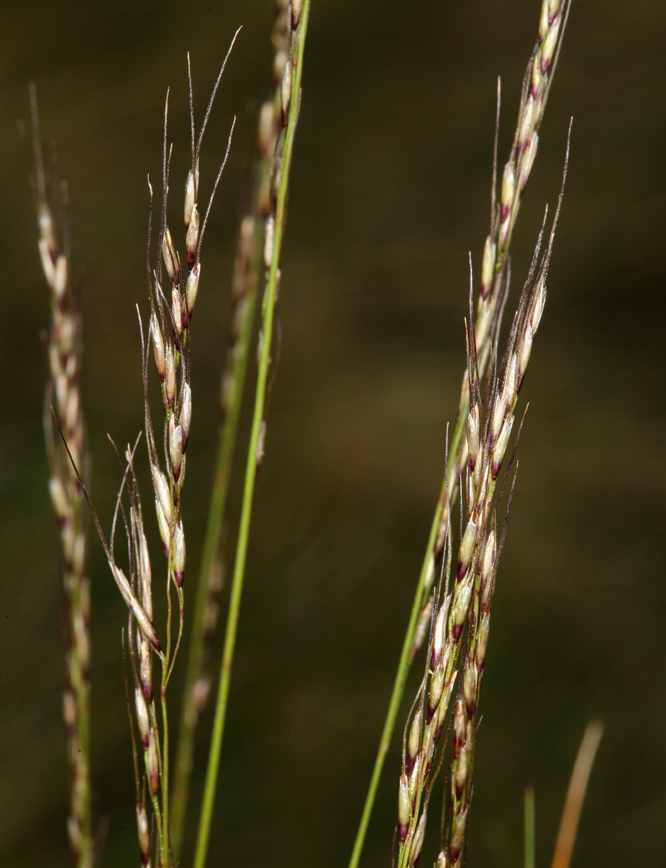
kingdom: Plantae
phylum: Tracheophyta
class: Liliopsida
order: Poales
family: Poaceae
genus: Ptilagrostiella
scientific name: Ptilagrostiella kingii
